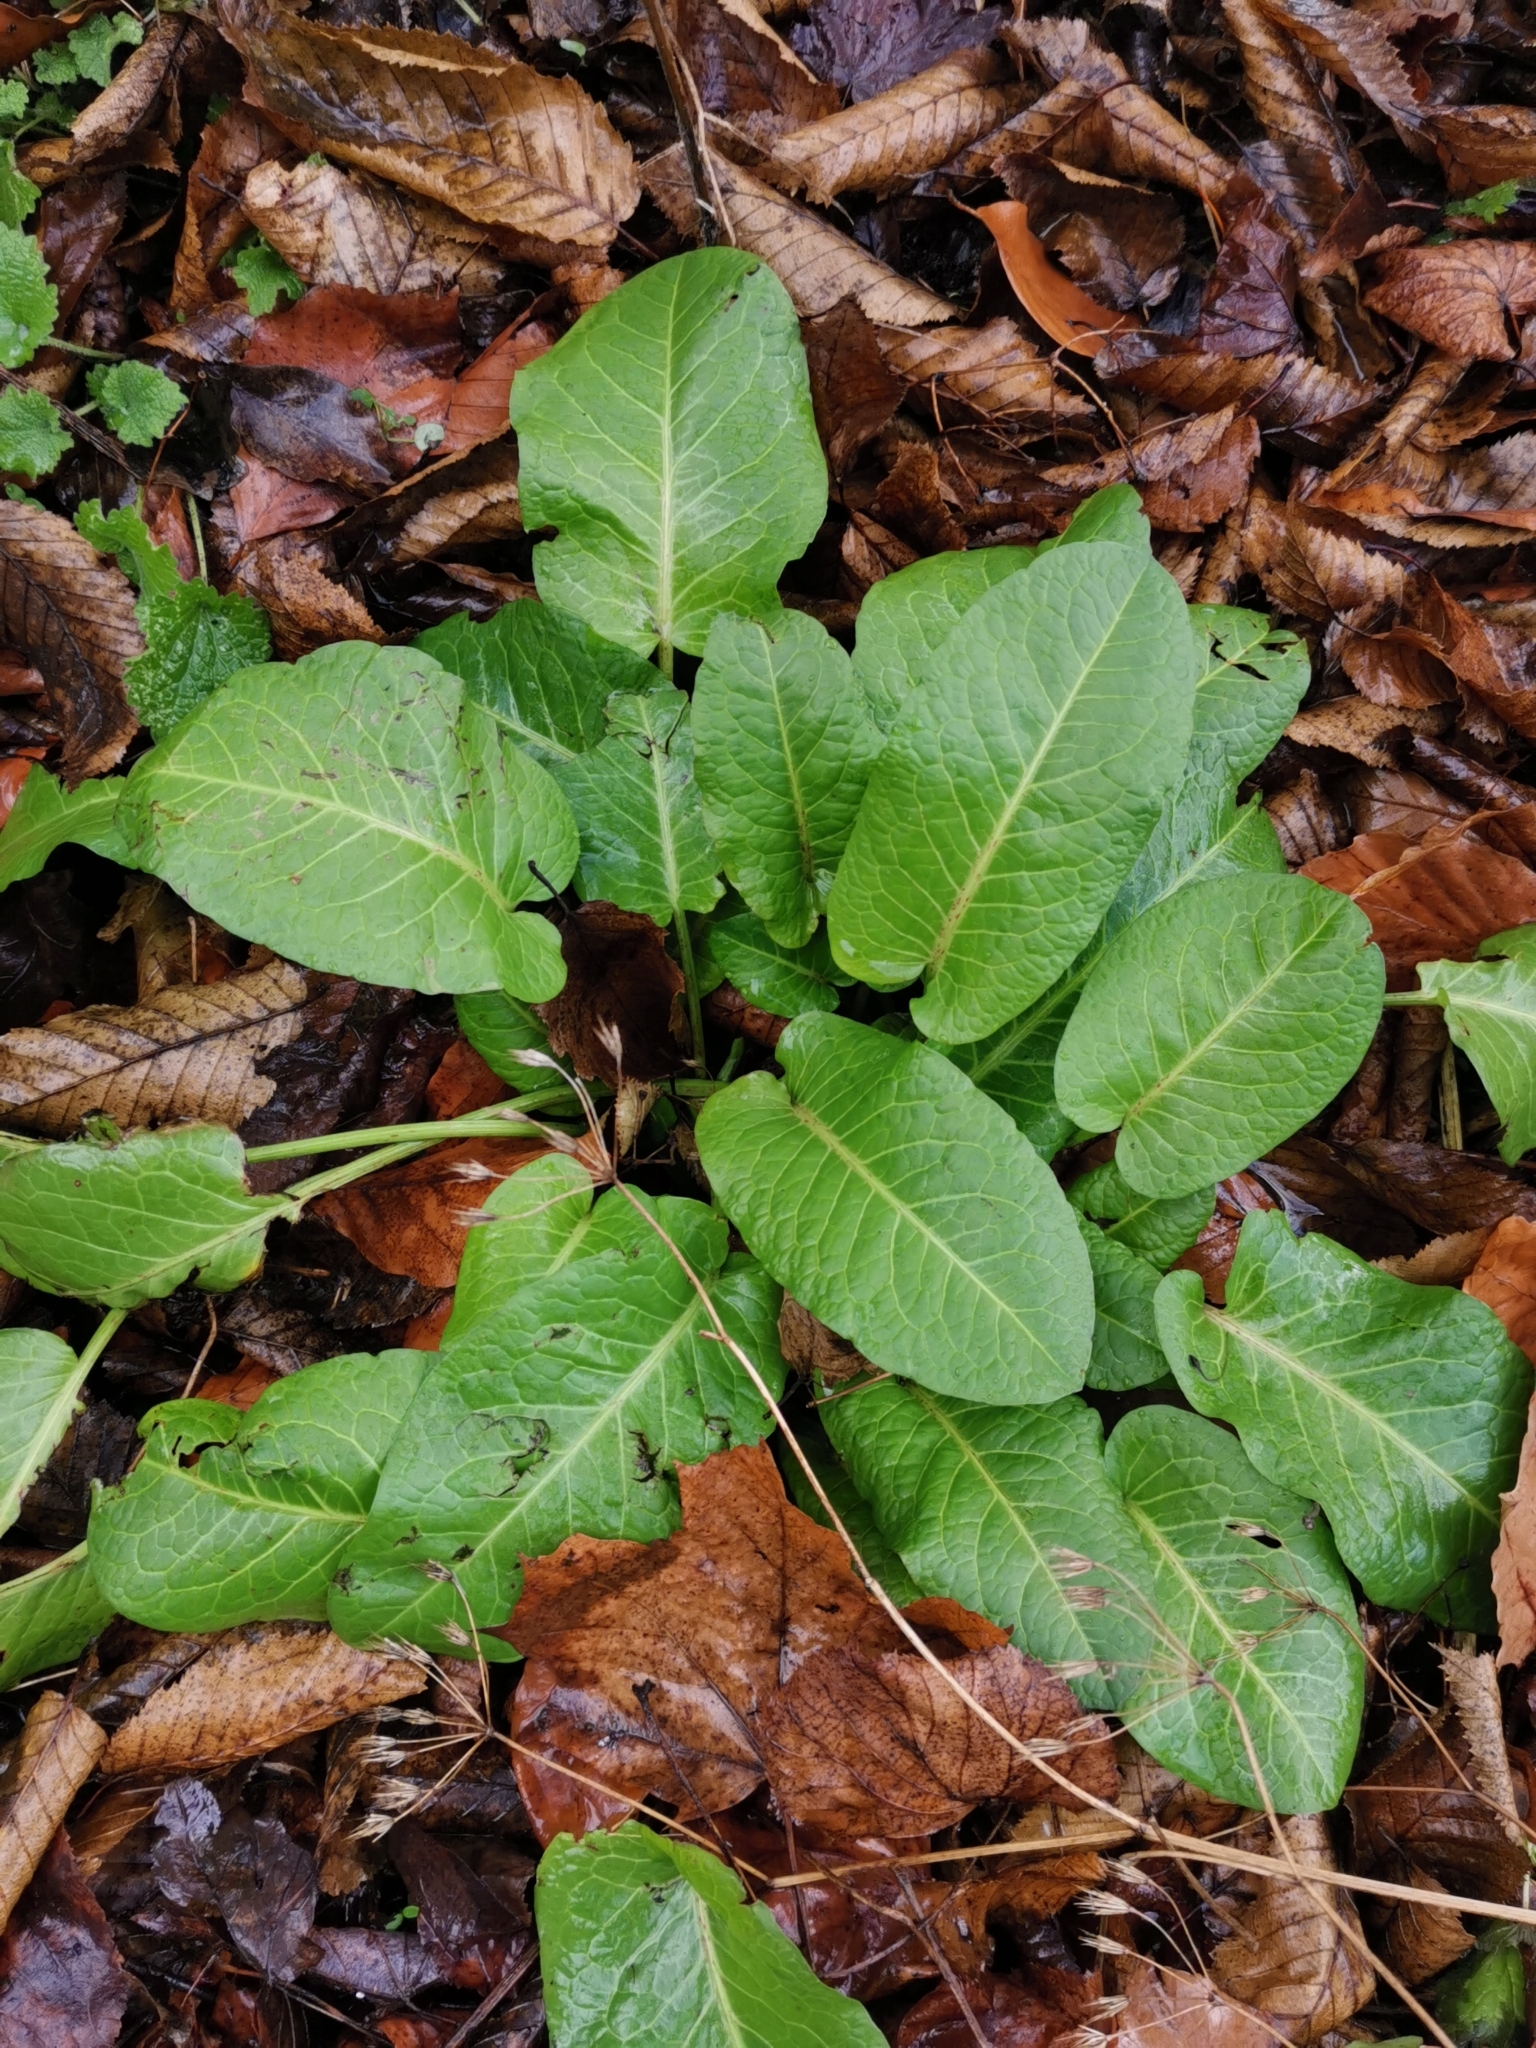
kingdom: Plantae
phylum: Tracheophyta
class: Magnoliopsida
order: Caryophyllales
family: Polygonaceae
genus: Rumex
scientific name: Rumex obtusifolius
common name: Bitter dock
